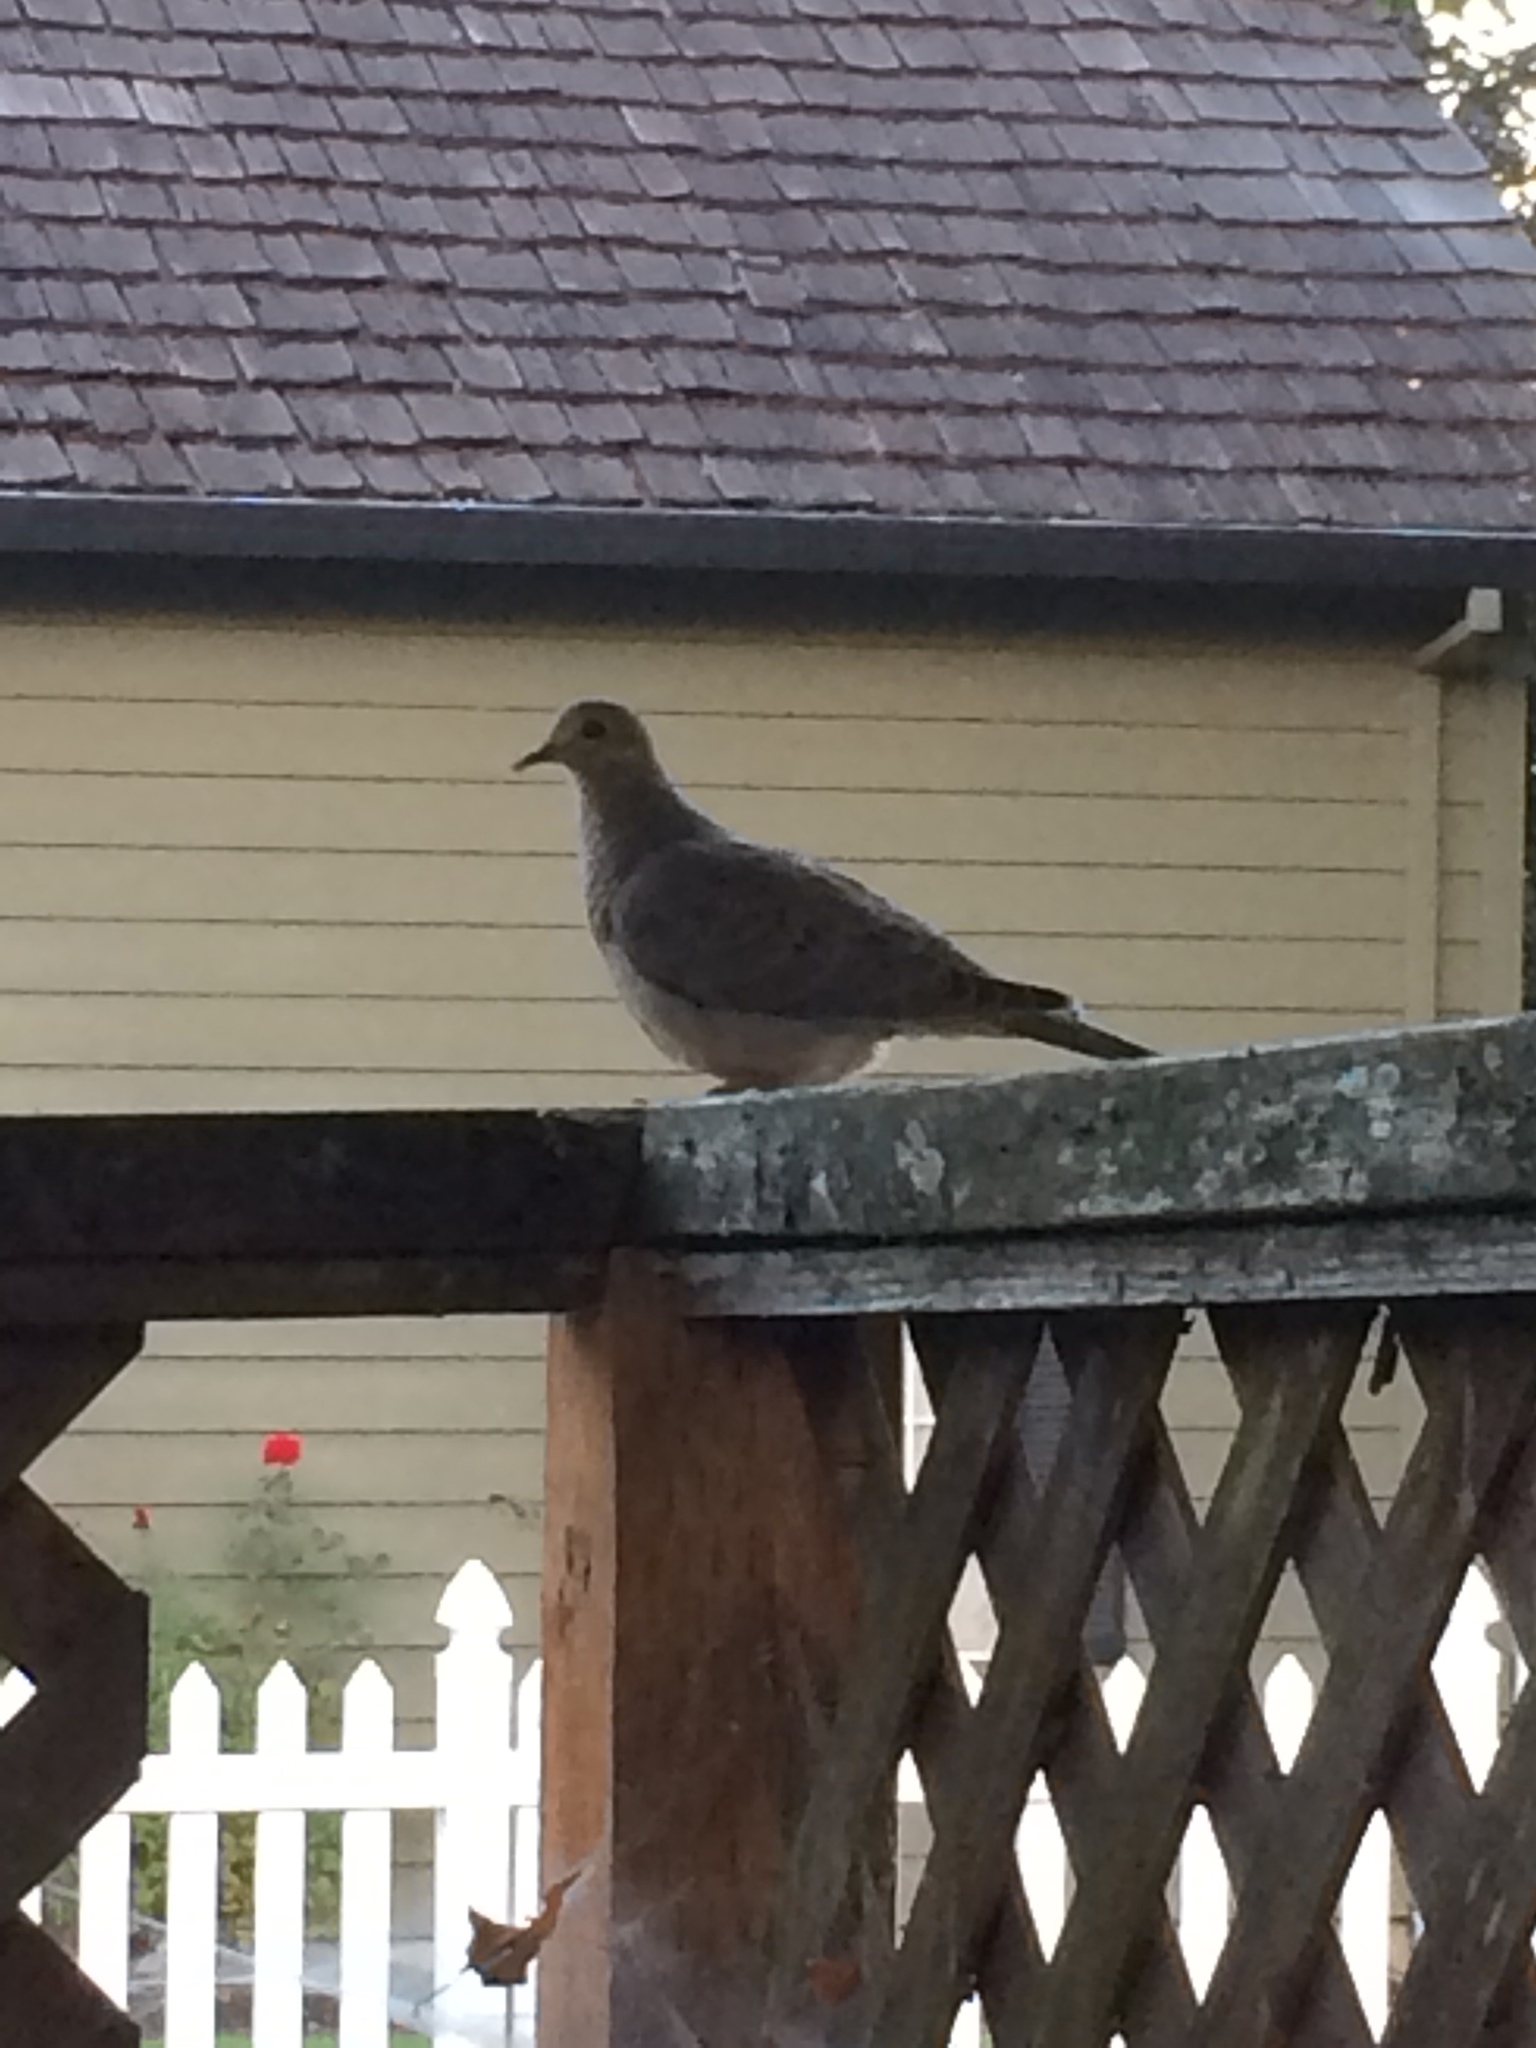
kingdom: Animalia
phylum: Chordata
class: Aves
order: Columbiformes
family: Columbidae
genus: Zenaida
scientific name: Zenaida macroura
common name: Mourning dove
